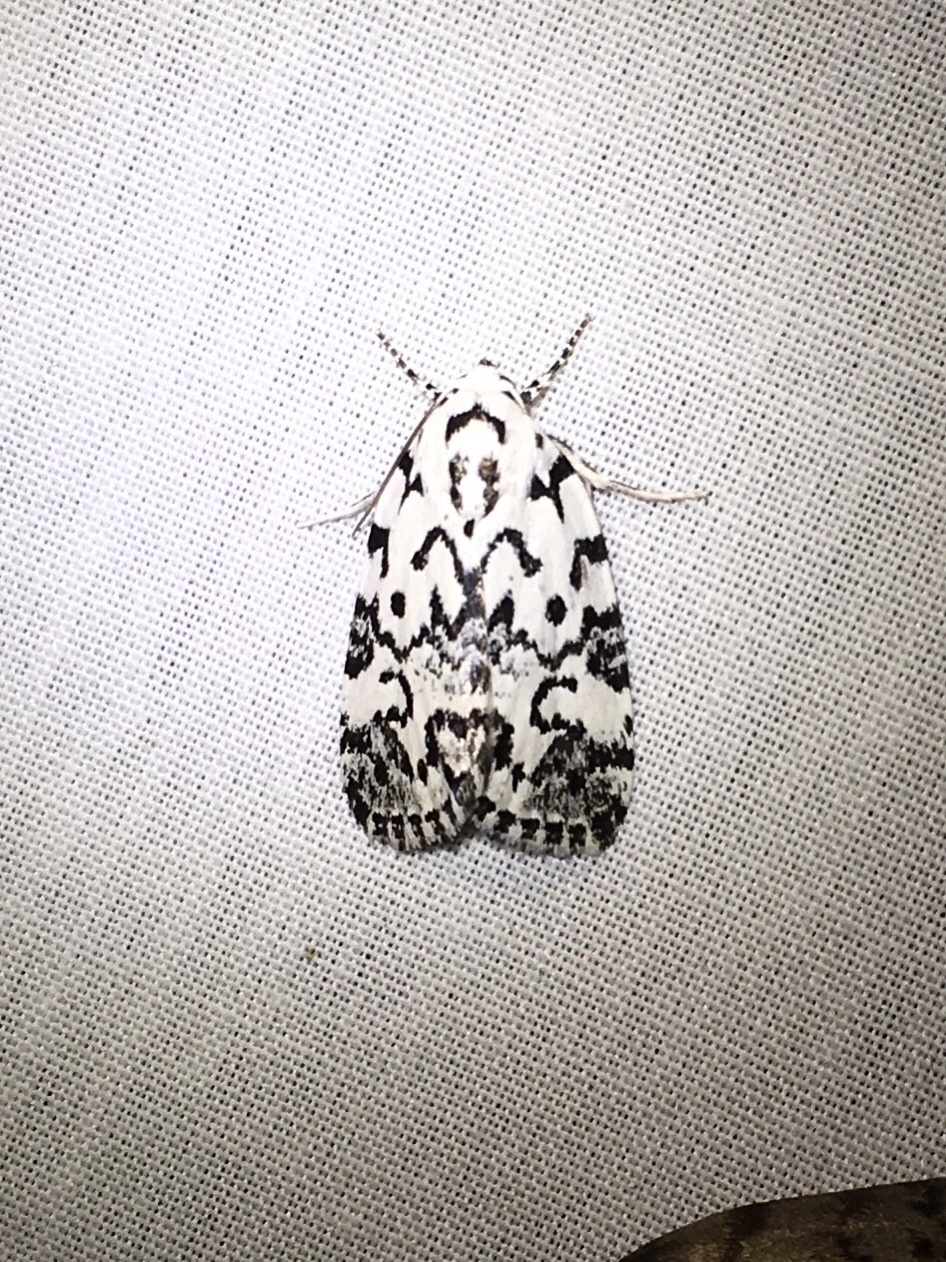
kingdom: Animalia
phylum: Arthropoda
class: Insecta
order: Lepidoptera
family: Noctuidae
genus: Polygrammate
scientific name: Polygrammate hebraeicum
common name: Hebrew moth
